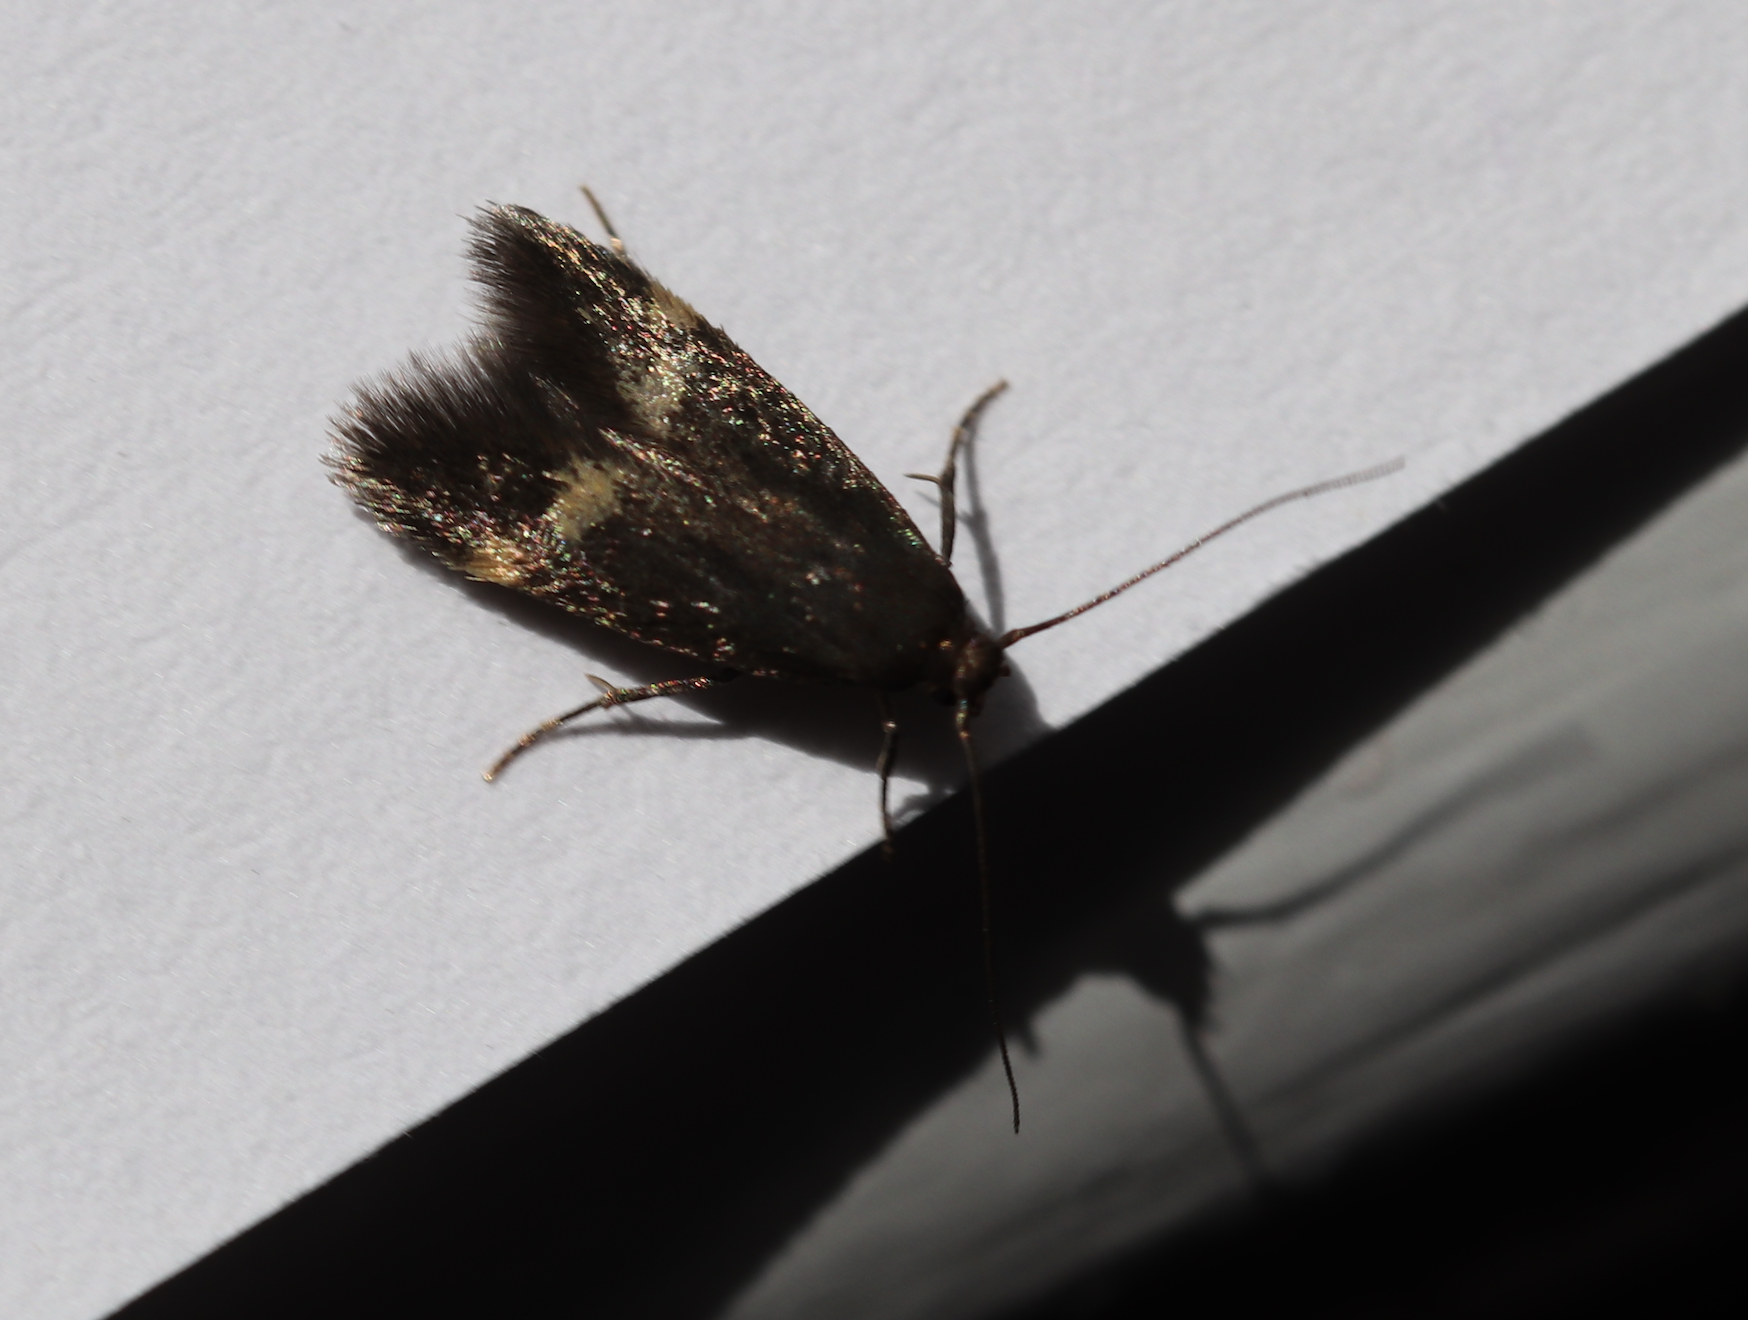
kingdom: Animalia
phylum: Arthropoda
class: Insecta
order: Lepidoptera
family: Oecophoridae
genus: Borkhausenia
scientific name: Borkhausenia minutella
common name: Thatch tubic
